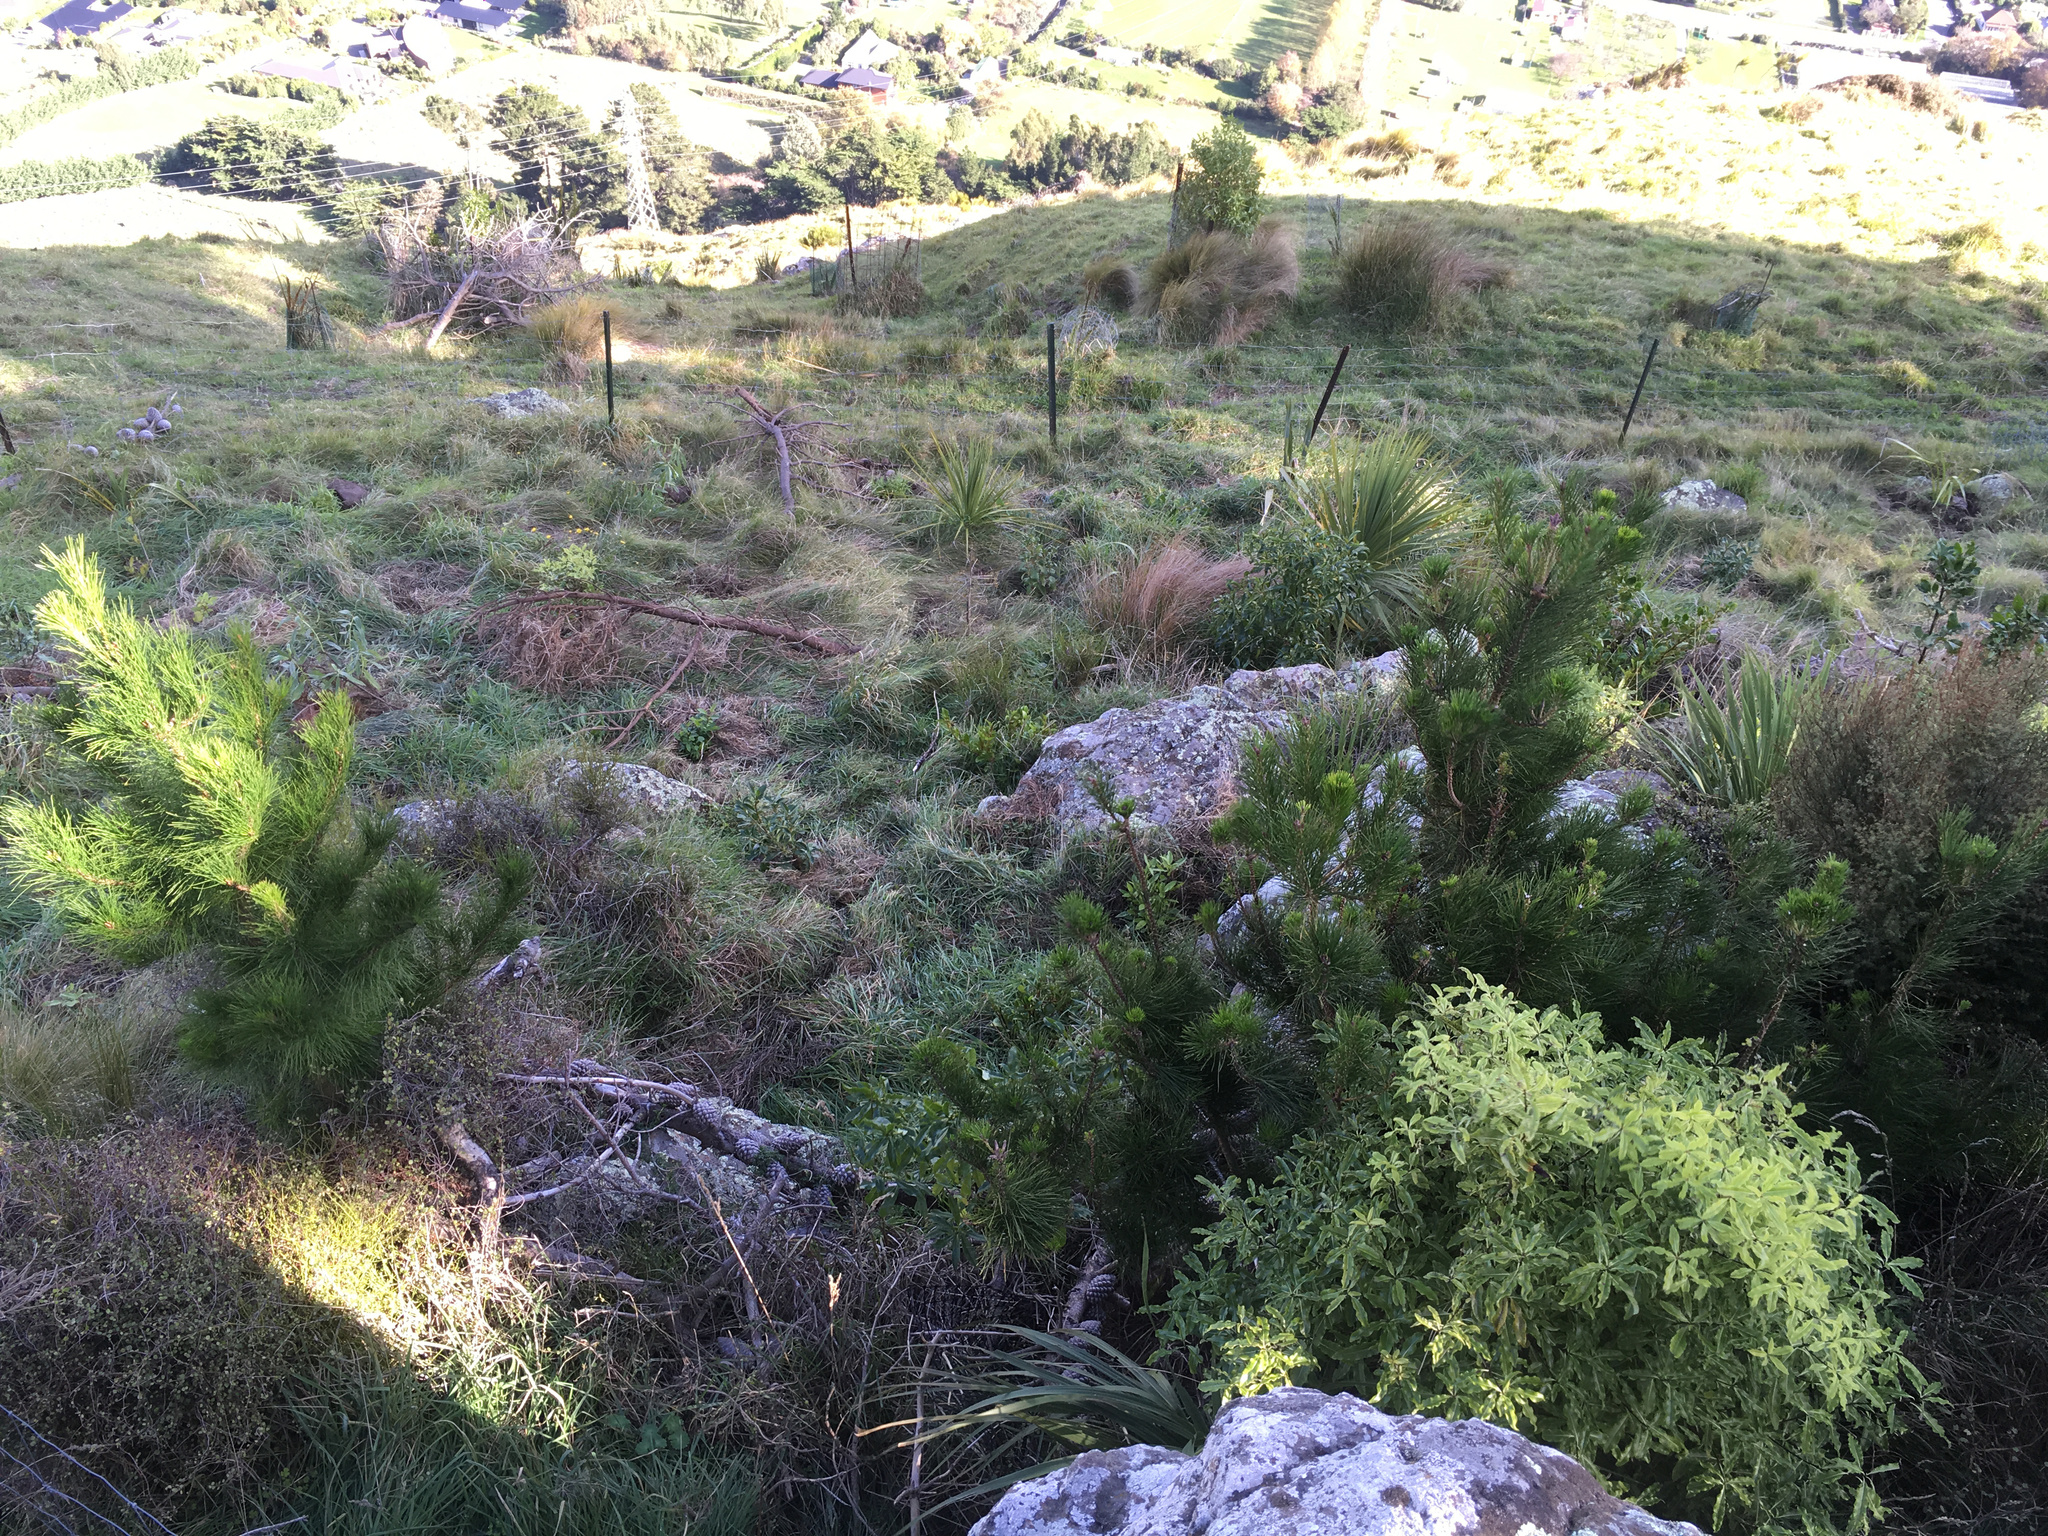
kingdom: Plantae
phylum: Tracheophyta
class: Pinopsida
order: Pinales
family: Pinaceae
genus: Pinus
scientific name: Pinus radiata
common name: Monterey pine
